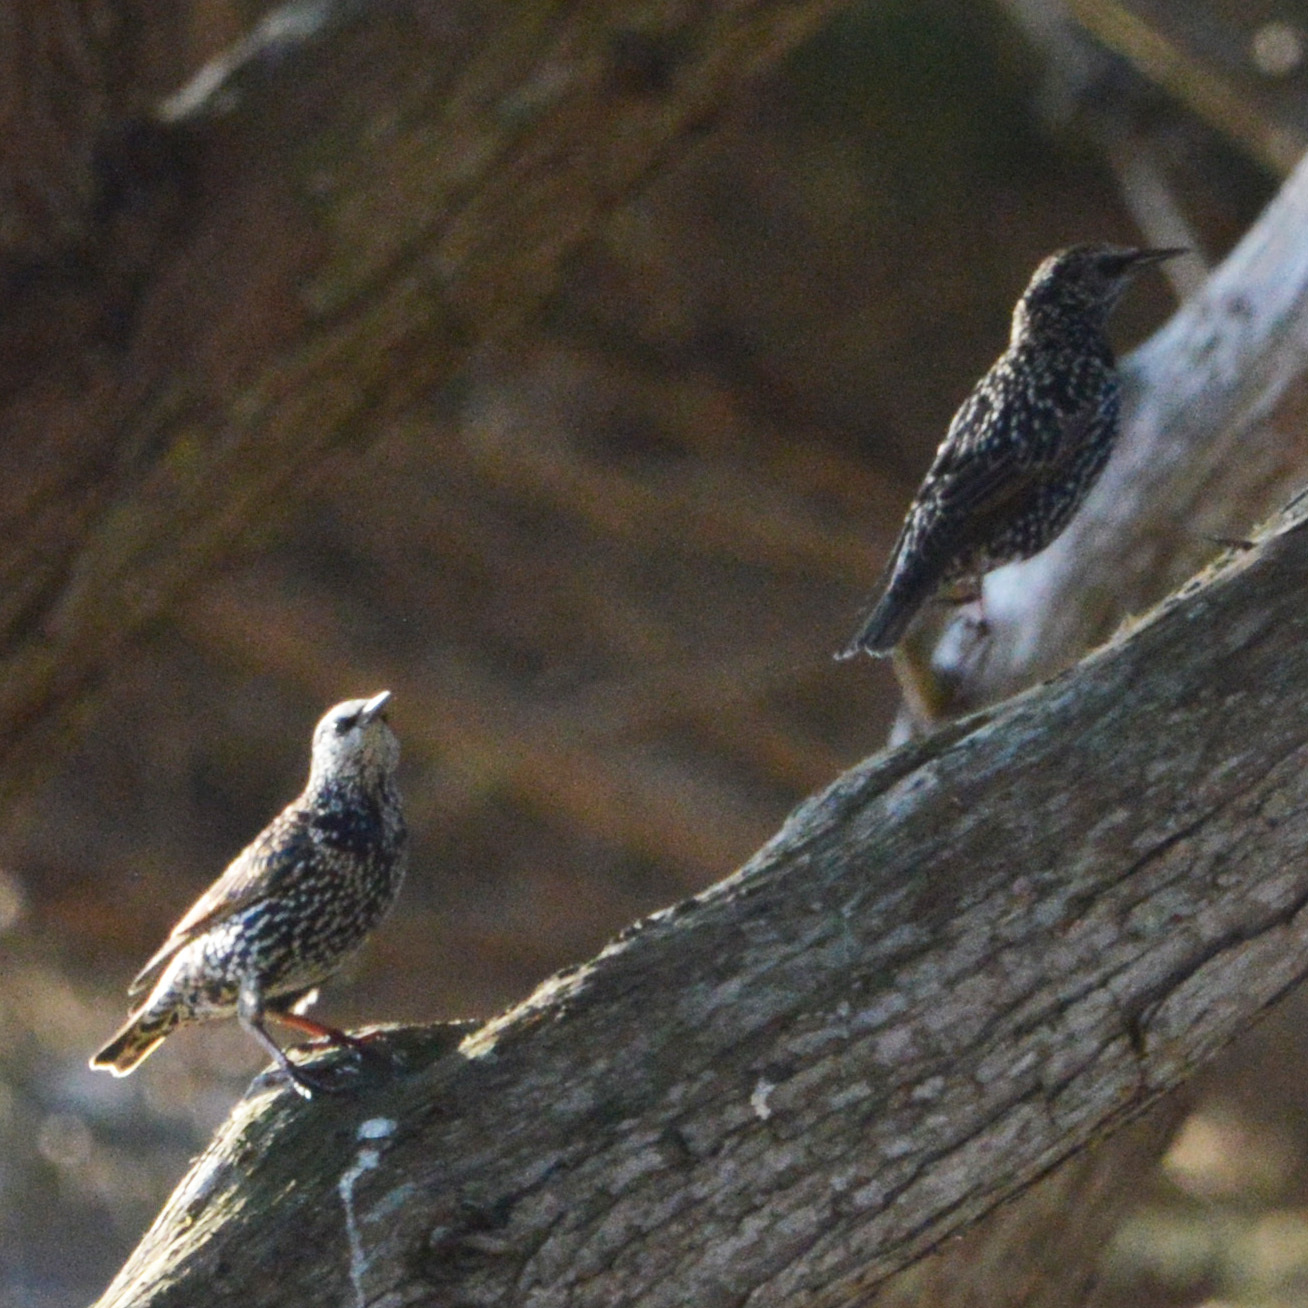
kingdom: Animalia
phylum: Chordata
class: Aves
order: Passeriformes
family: Sturnidae
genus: Sturnus
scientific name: Sturnus vulgaris
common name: Common starling
